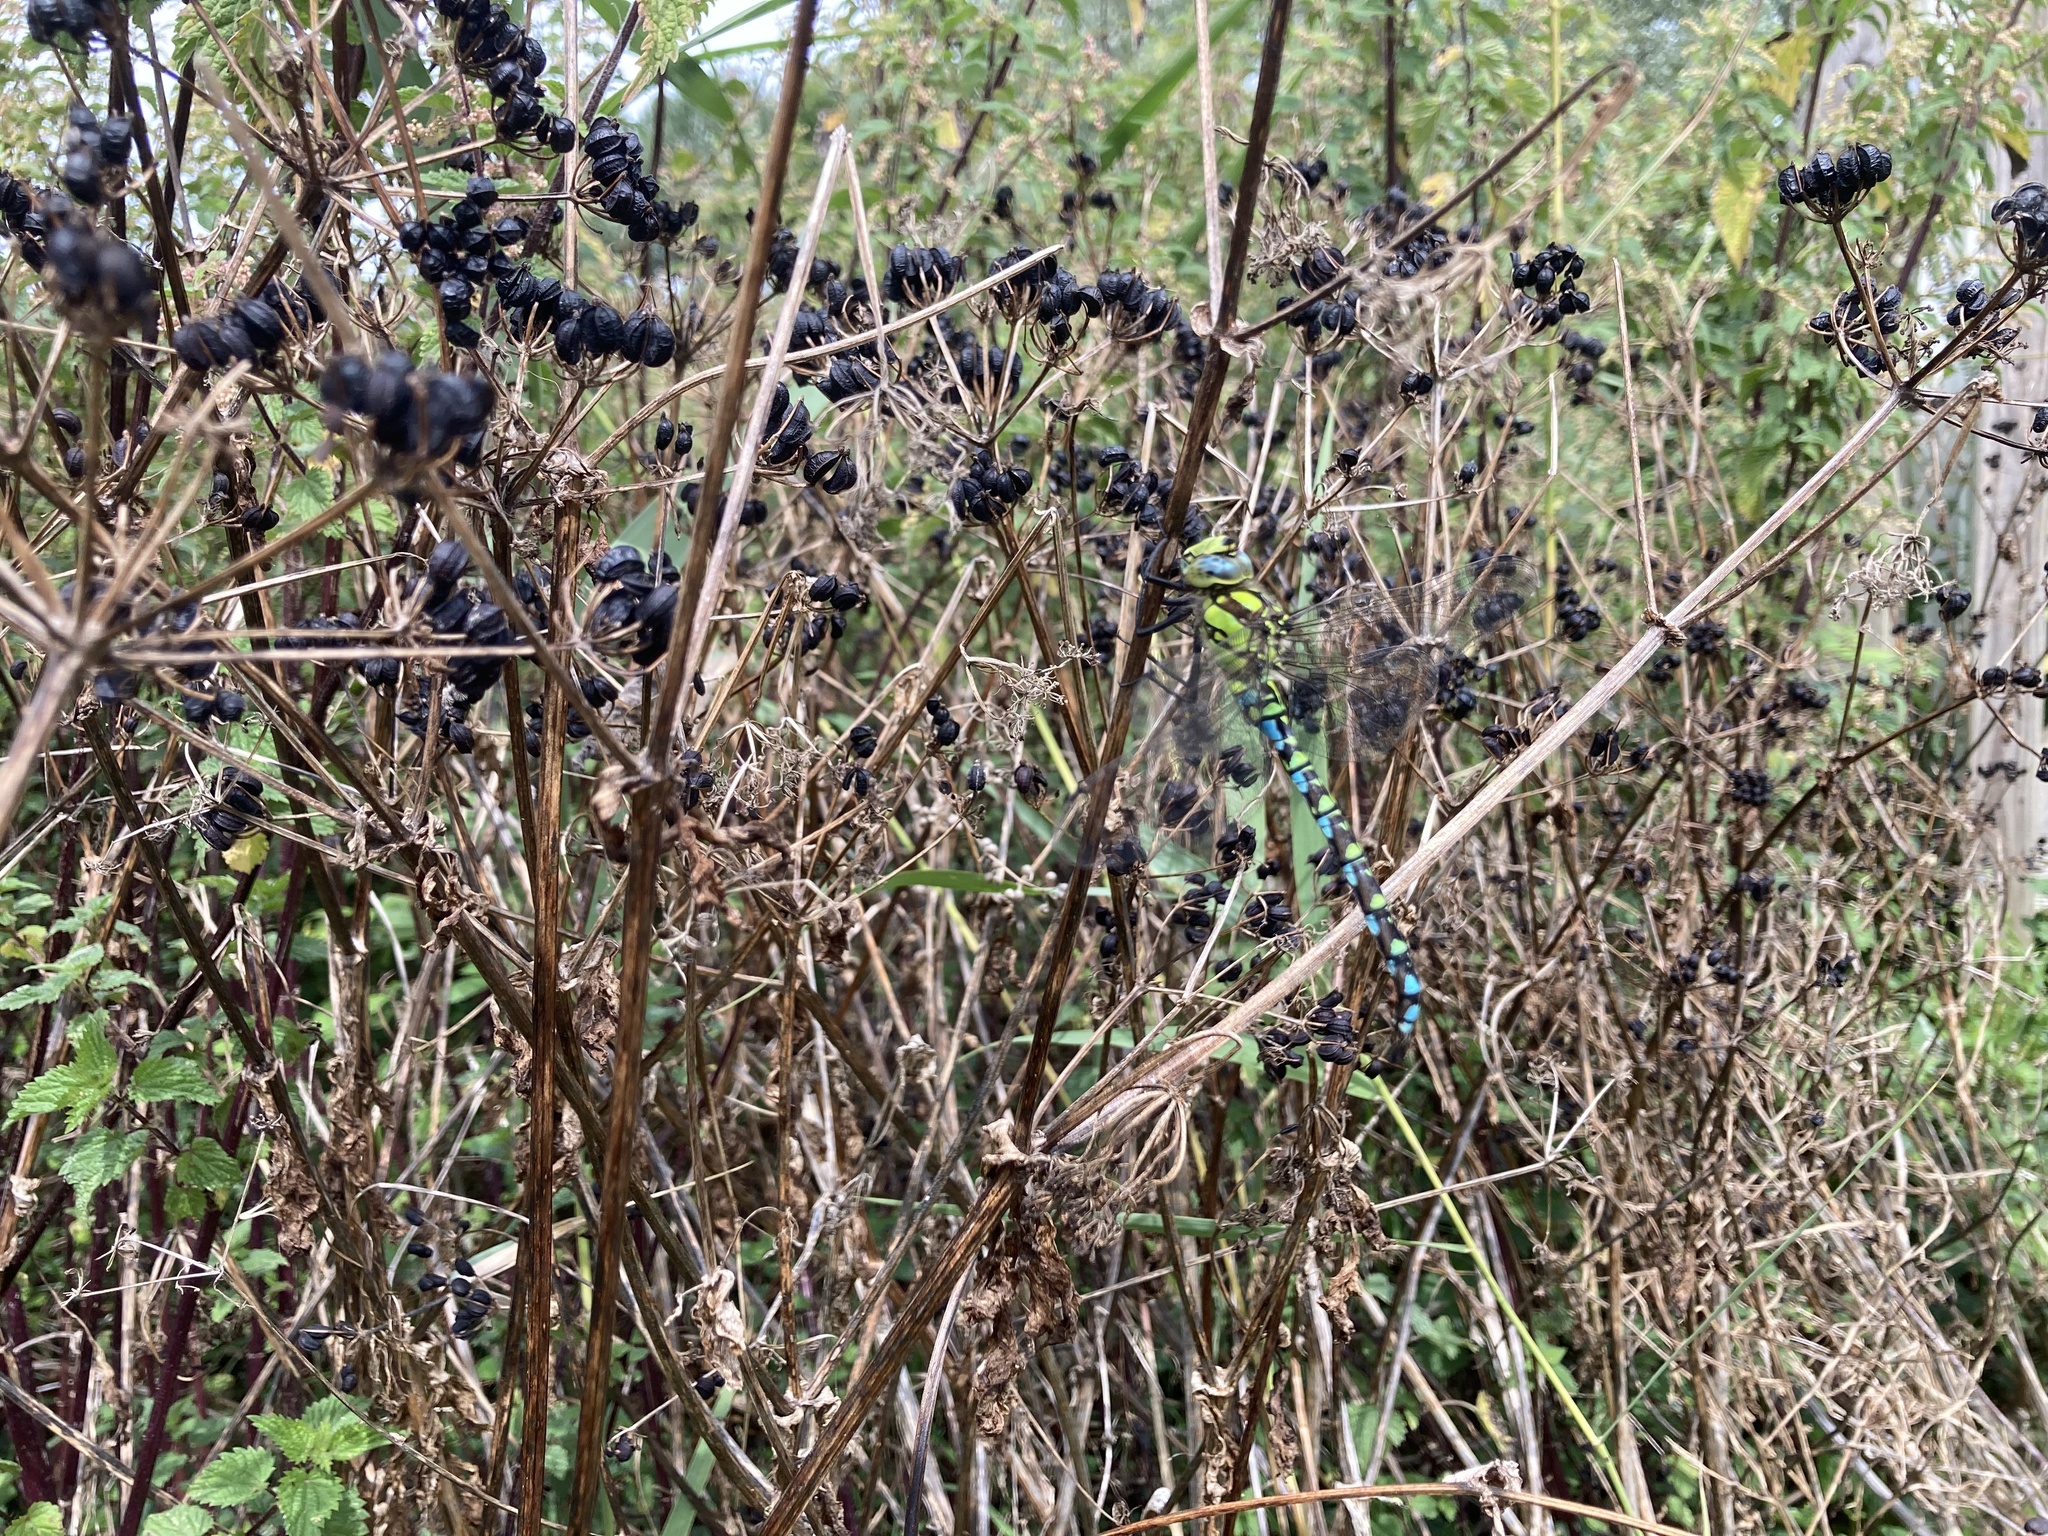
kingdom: Animalia
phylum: Arthropoda
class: Insecta
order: Odonata
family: Aeshnidae
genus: Aeshna
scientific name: Aeshna cyanea
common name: Southern hawker
